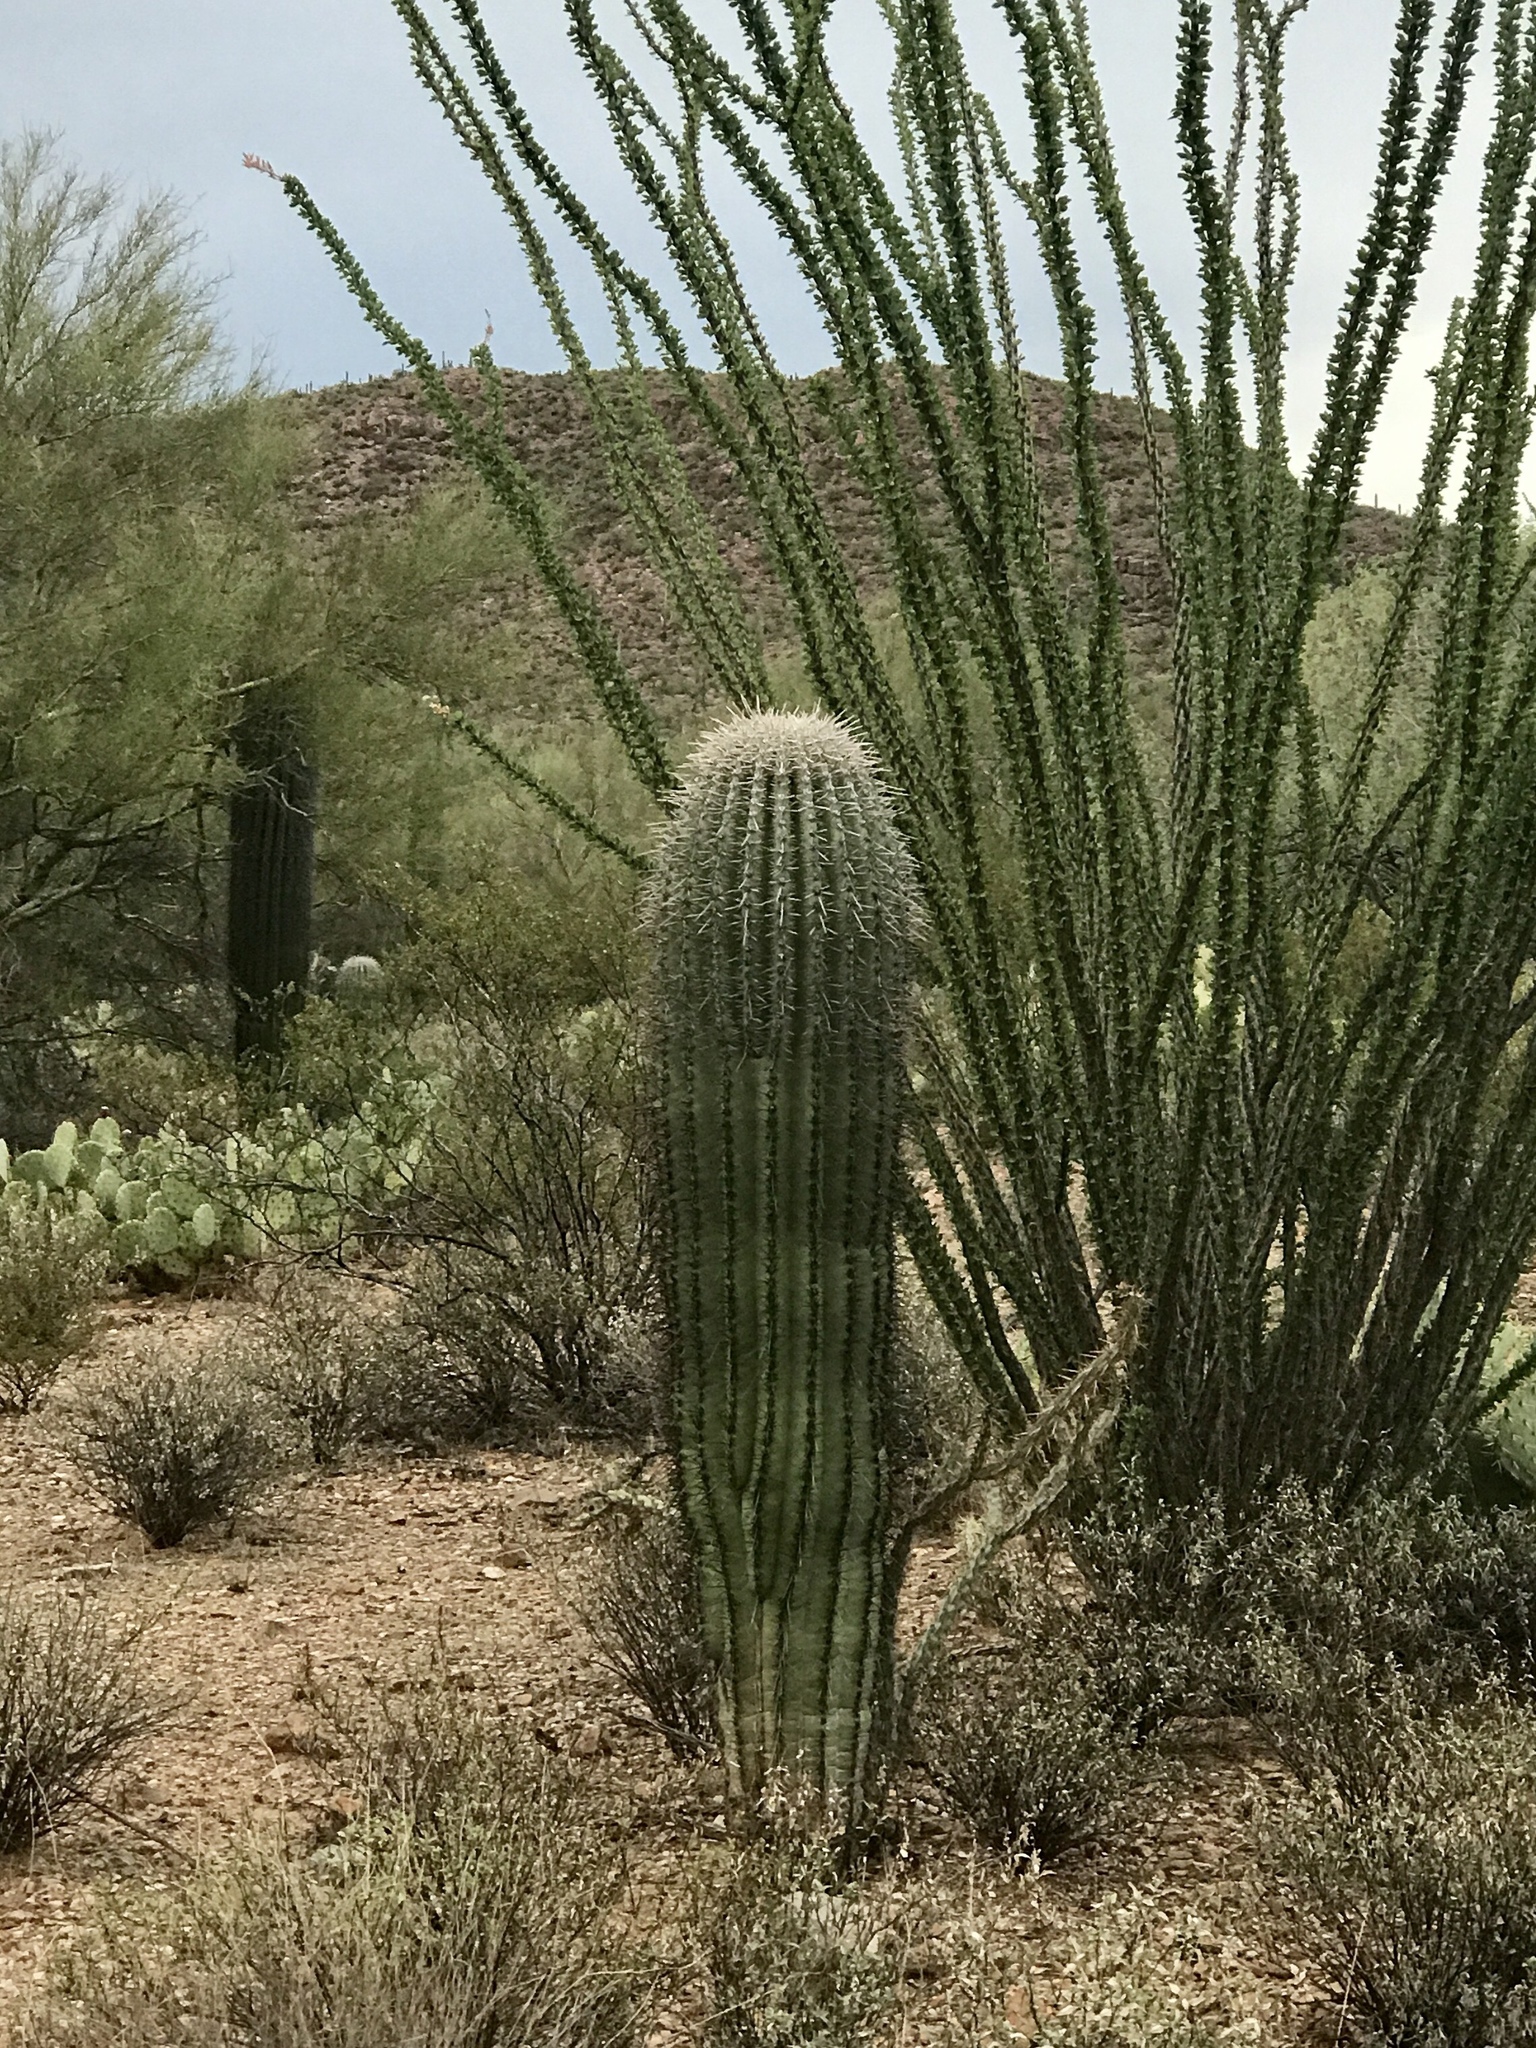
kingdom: Plantae
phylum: Tracheophyta
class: Magnoliopsida
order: Caryophyllales
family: Cactaceae
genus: Carnegiea
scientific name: Carnegiea gigantea
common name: Saguaro
